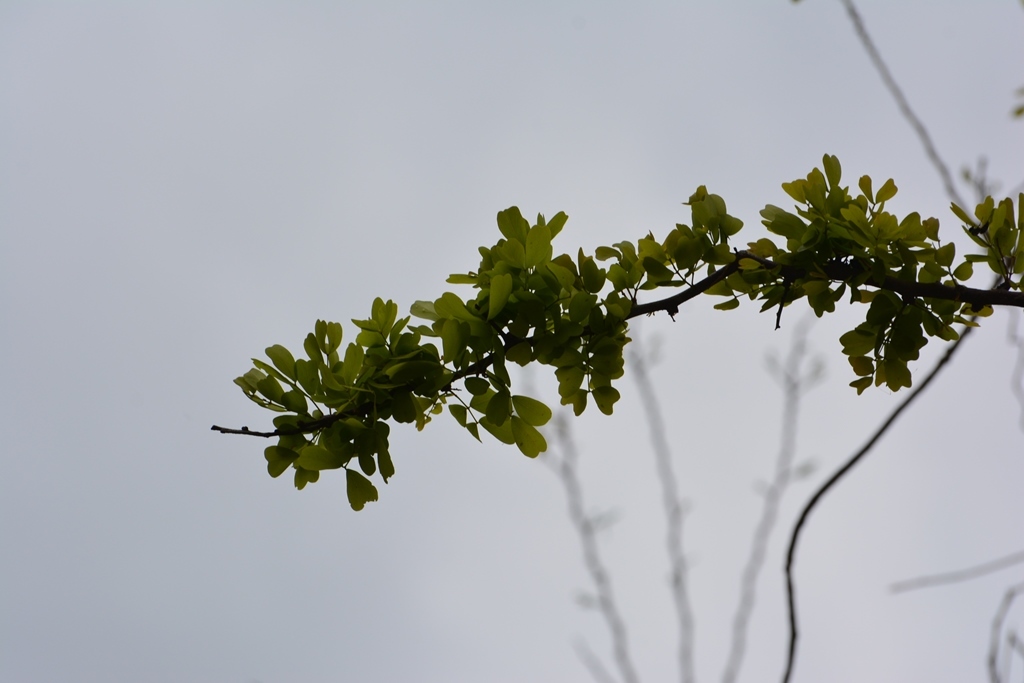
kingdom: Plantae
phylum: Tracheophyta
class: Magnoliopsida
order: Fabales
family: Fabaceae
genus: Haematoxylum
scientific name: Haematoxylum campechianum
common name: Logwood
